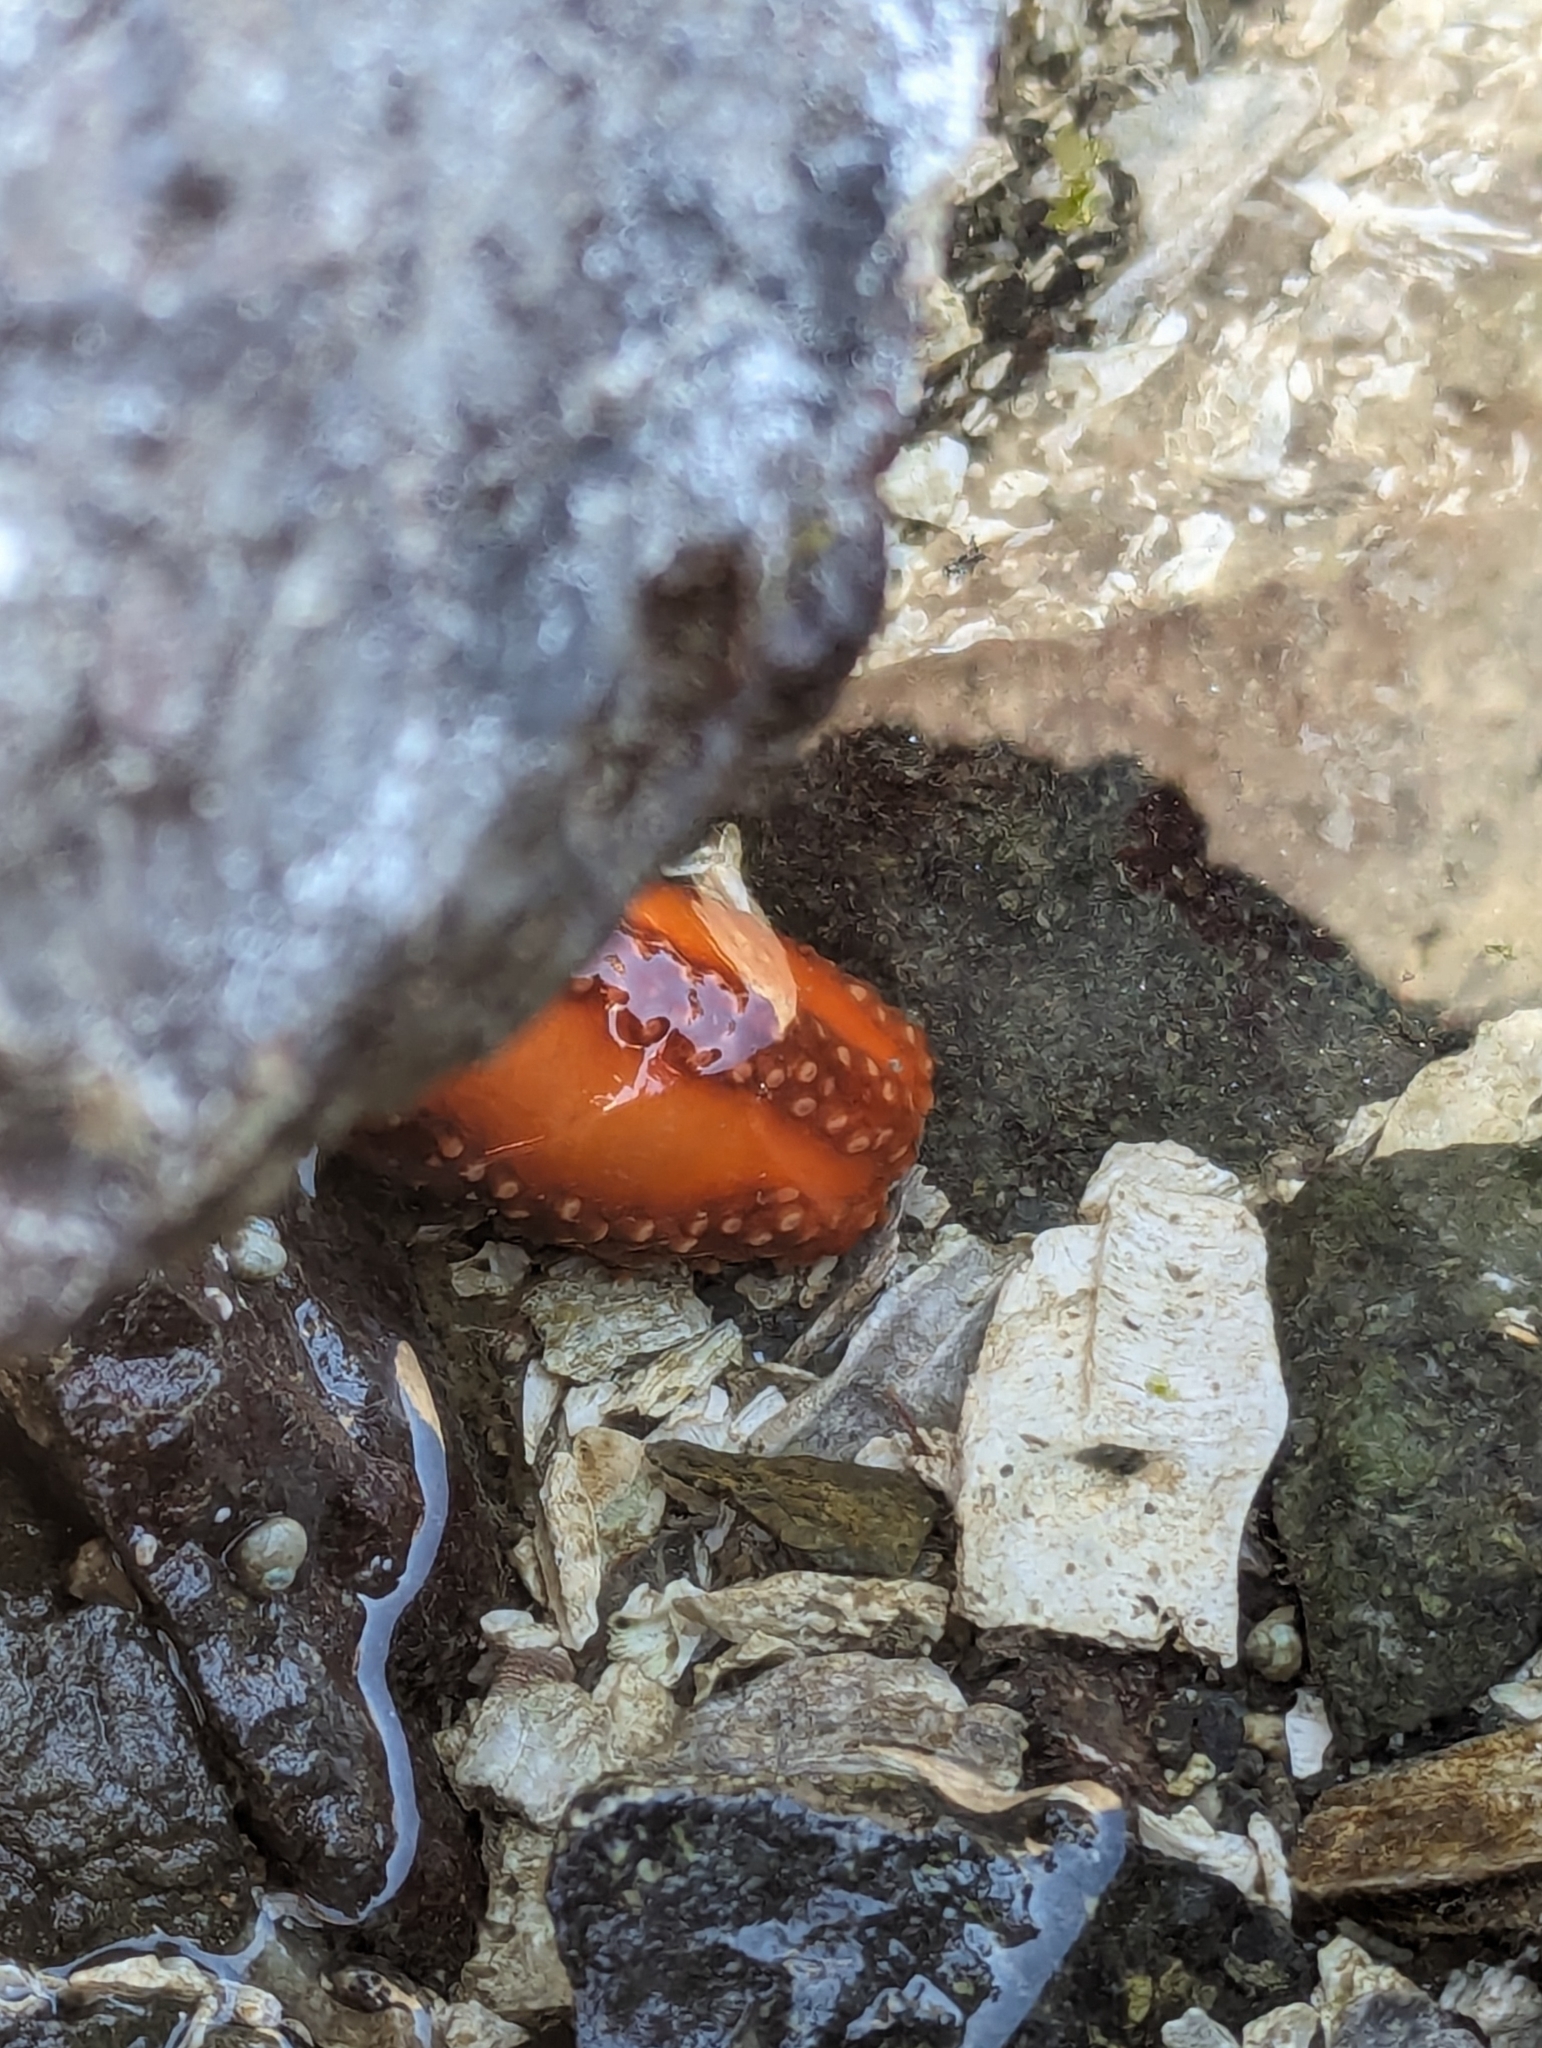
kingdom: Animalia
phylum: Echinodermata
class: Holothuroidea
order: Dendrochirotida
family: Cucumariidae
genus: Cucumaria
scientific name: Cucumaria miniata
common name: Orange sea cucumber
